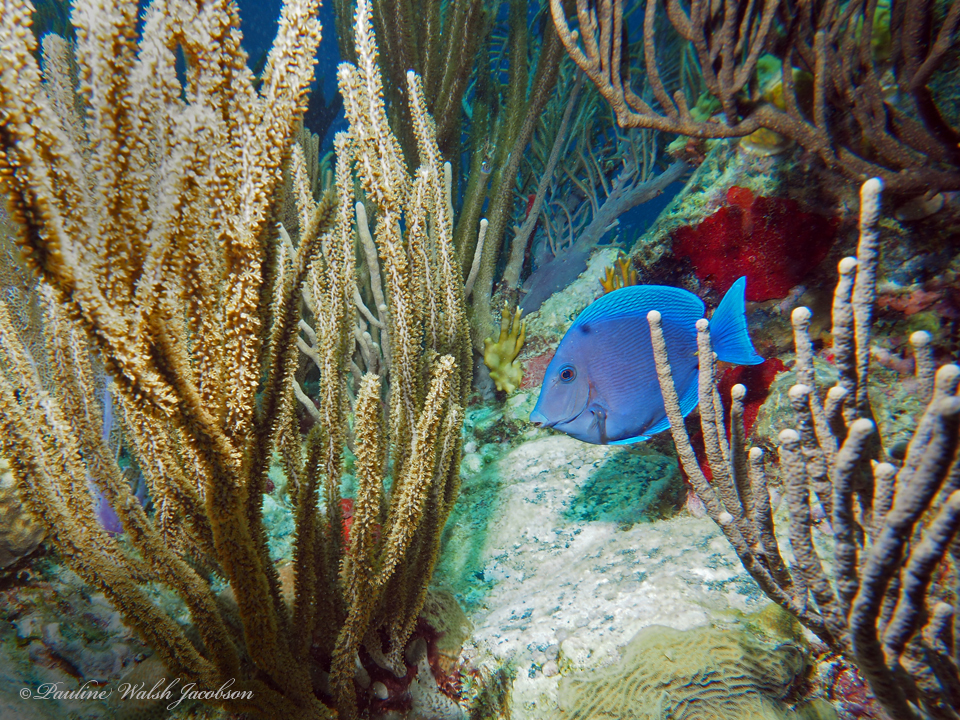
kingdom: Animalia
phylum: Chordata
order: Perciformes
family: Acanthuridae
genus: Acanthurus
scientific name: Acanthurus coeruleus
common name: Blue tang
